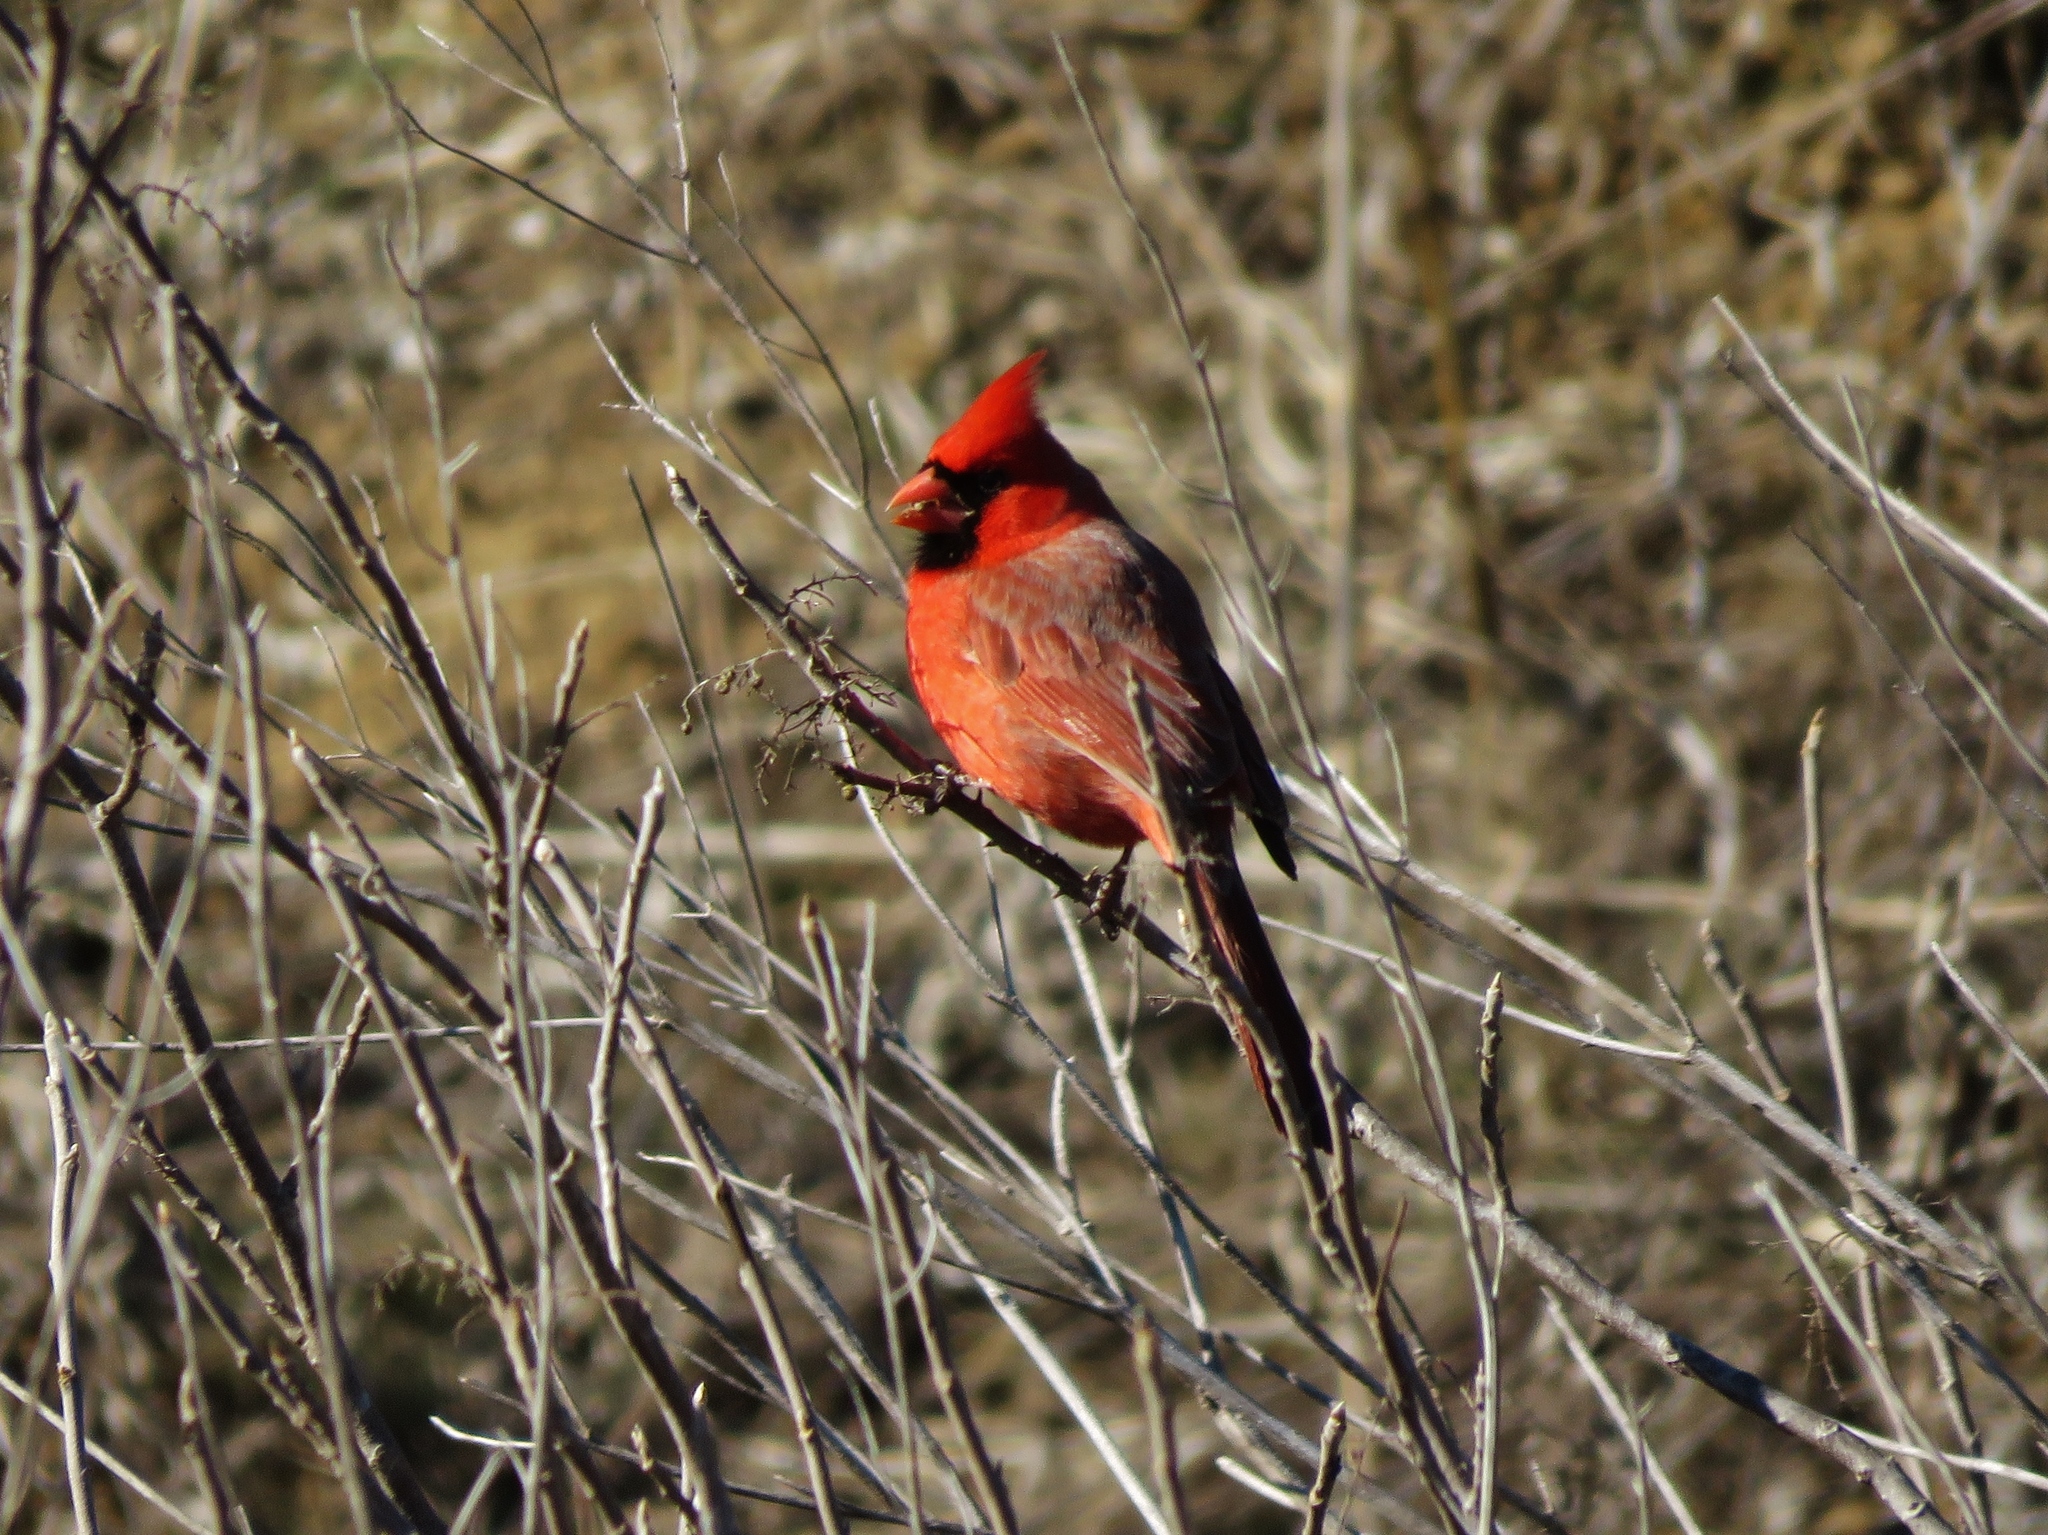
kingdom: Animalia
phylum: Chordata
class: Aves
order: Passeriformes
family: Cardinalidae
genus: Cardinalis
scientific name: Cardinalis cardinalis
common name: Northern cardinal
